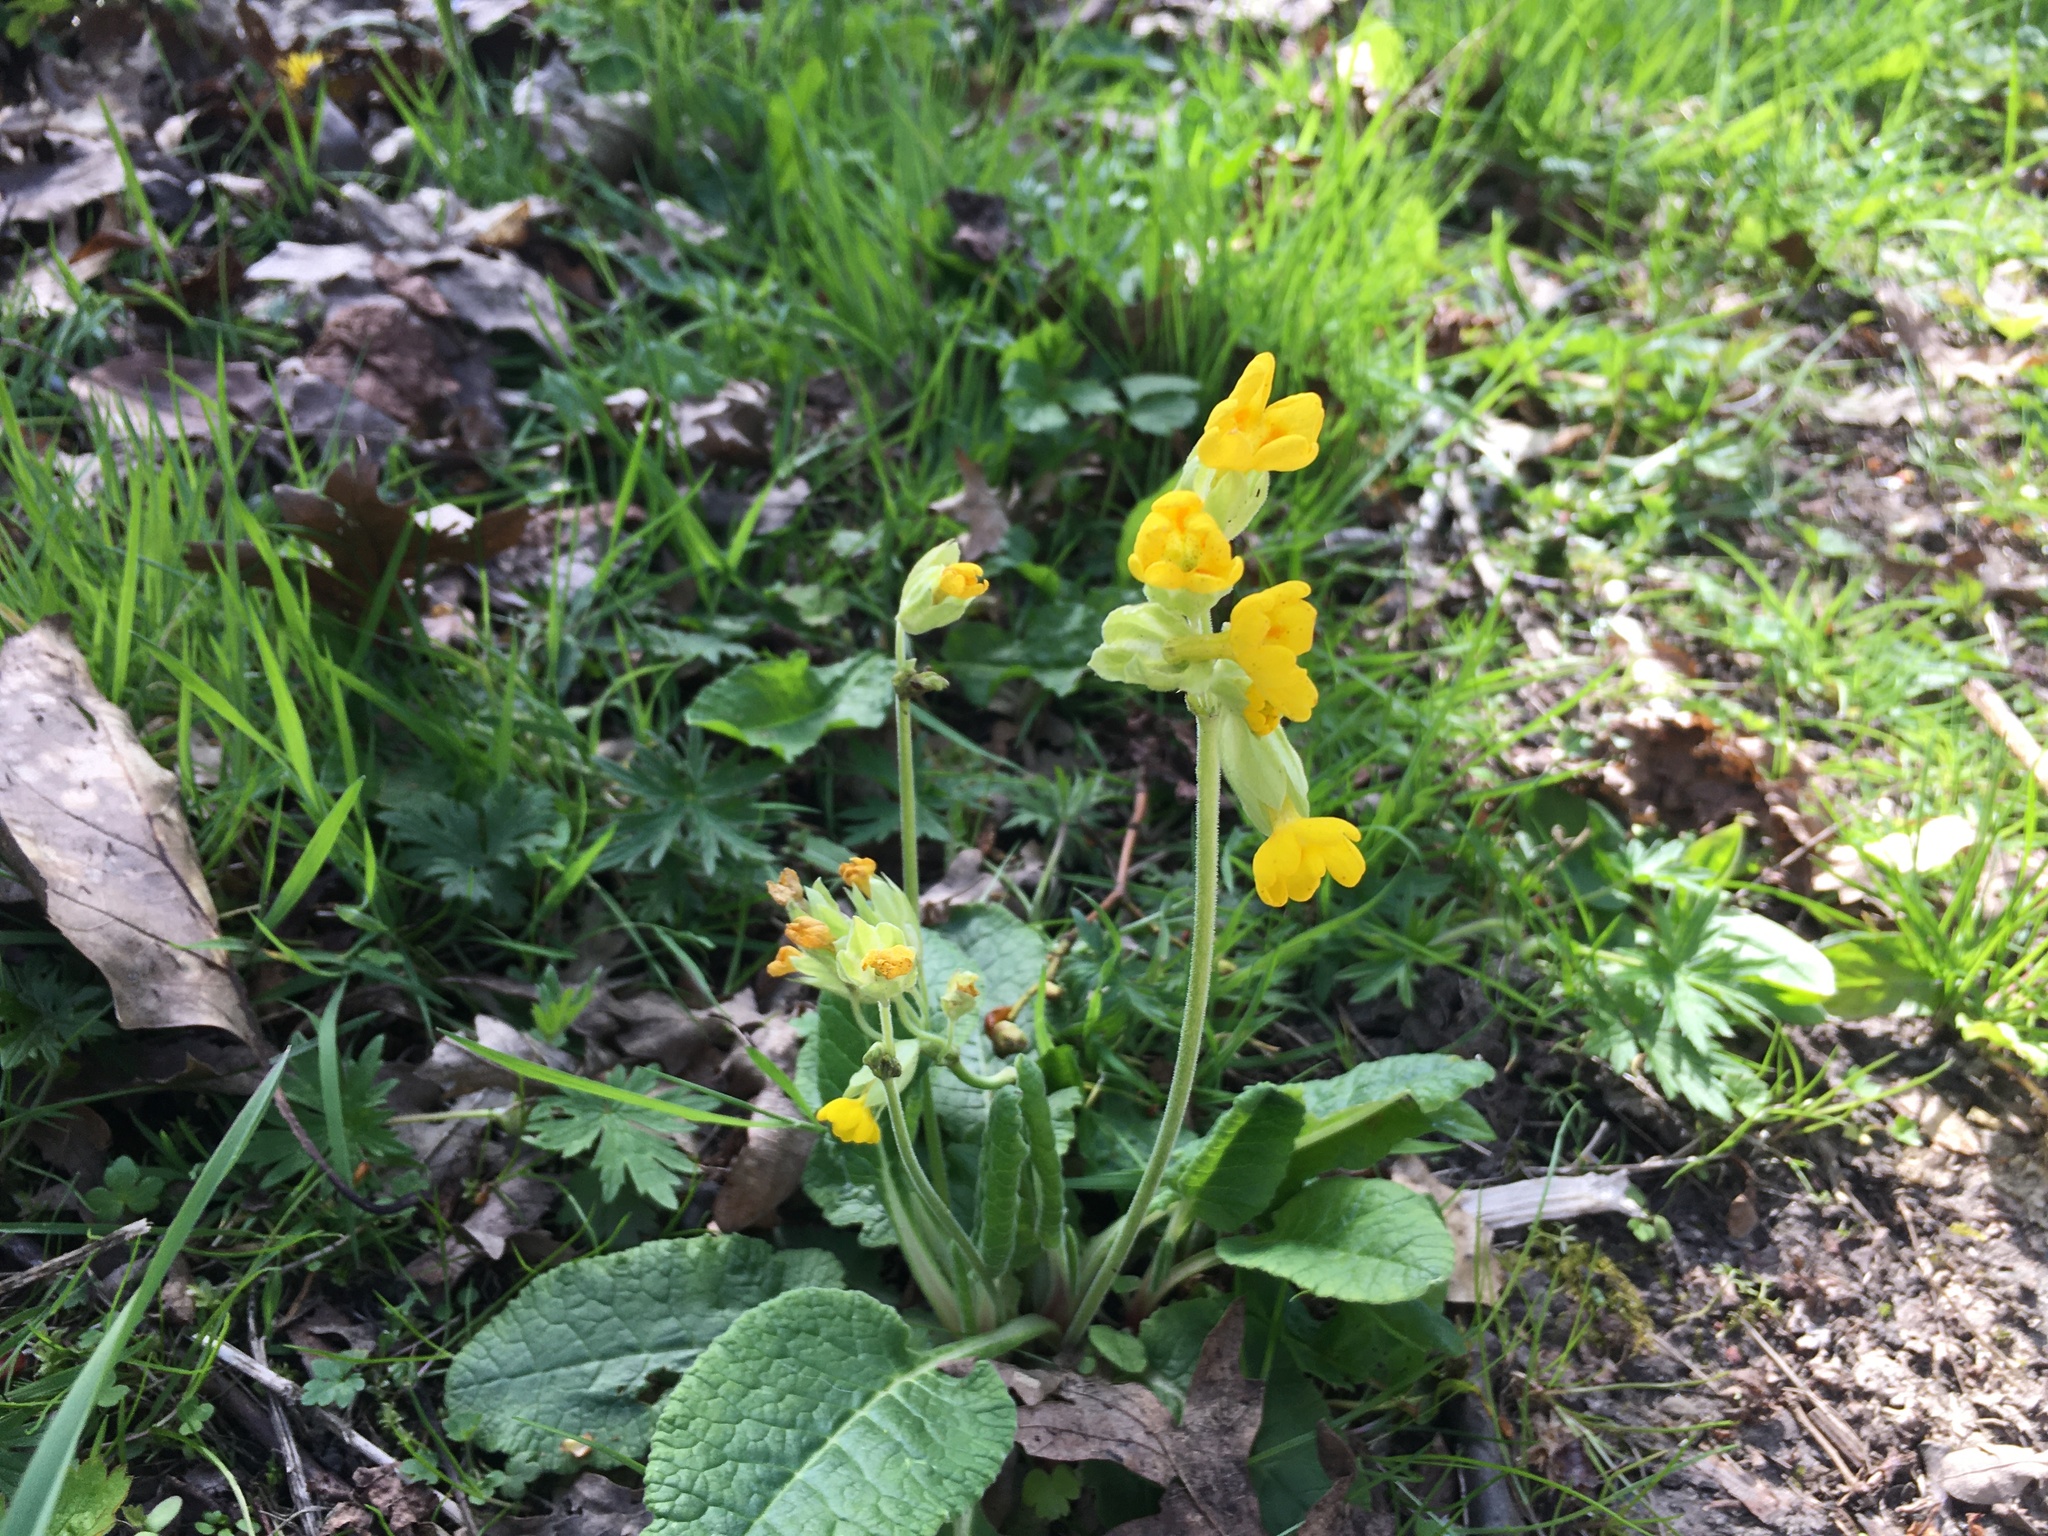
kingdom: Plantae
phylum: Tracheophyta
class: Magnoliopsida
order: Ericales
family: Primulaceae
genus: Primula
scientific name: Primula veris
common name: Cowslip
